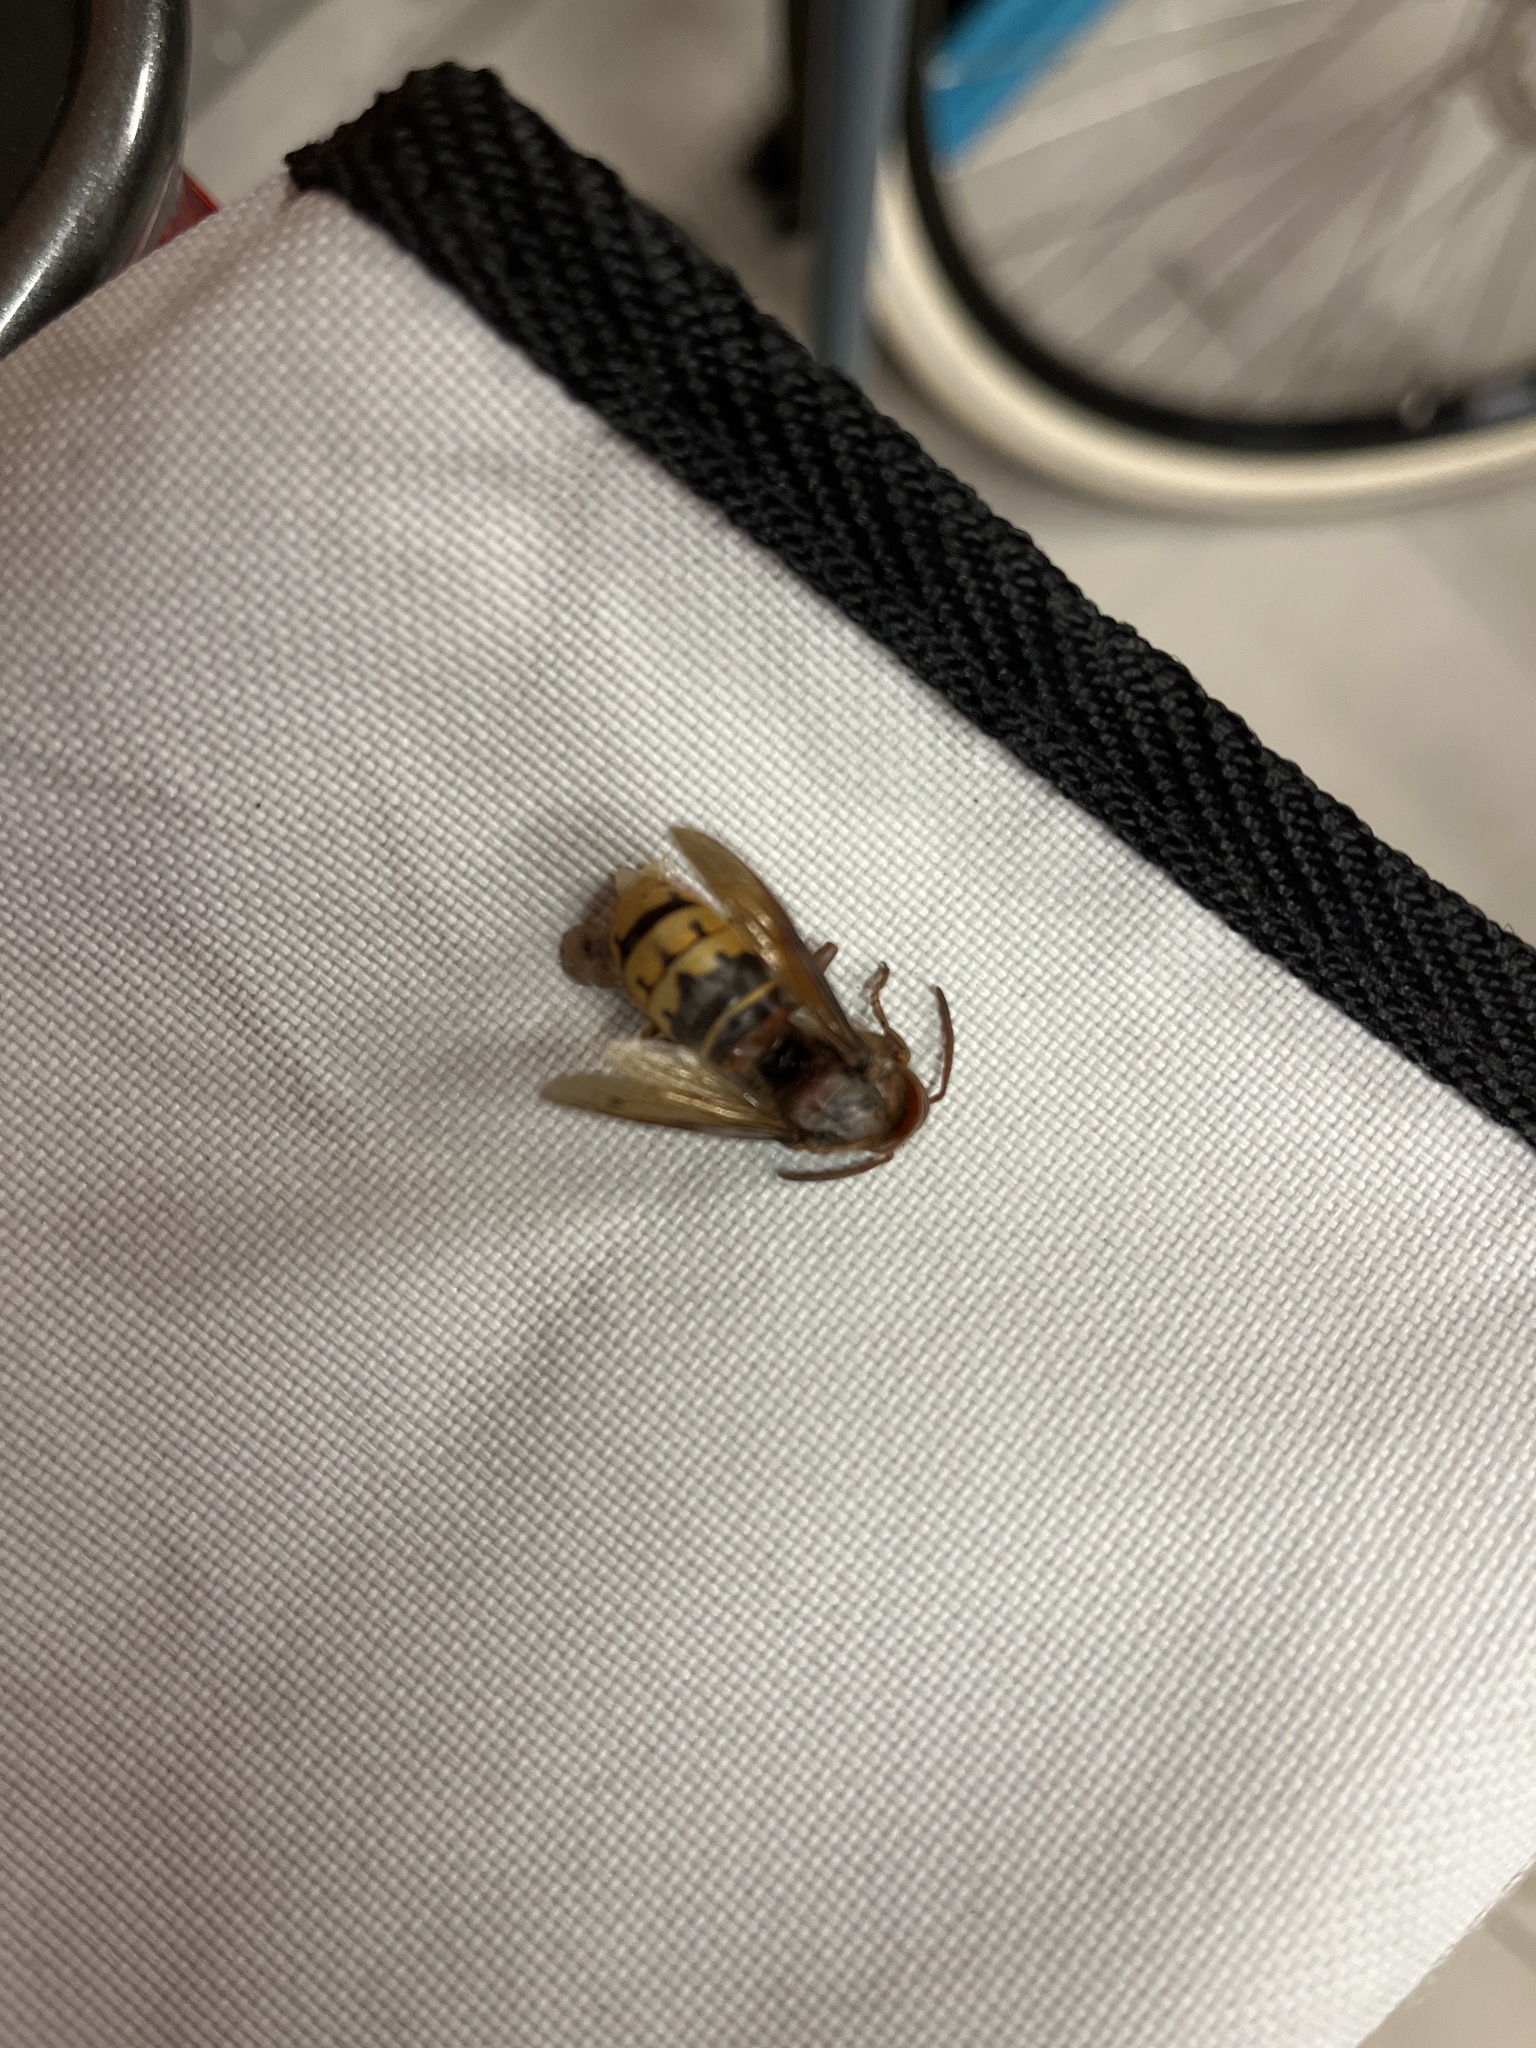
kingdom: Animalia
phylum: Arthropoda
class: Insecta
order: Hymenoptera
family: Vespidae
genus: Vespa
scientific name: Vespa crabro
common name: Hornet
